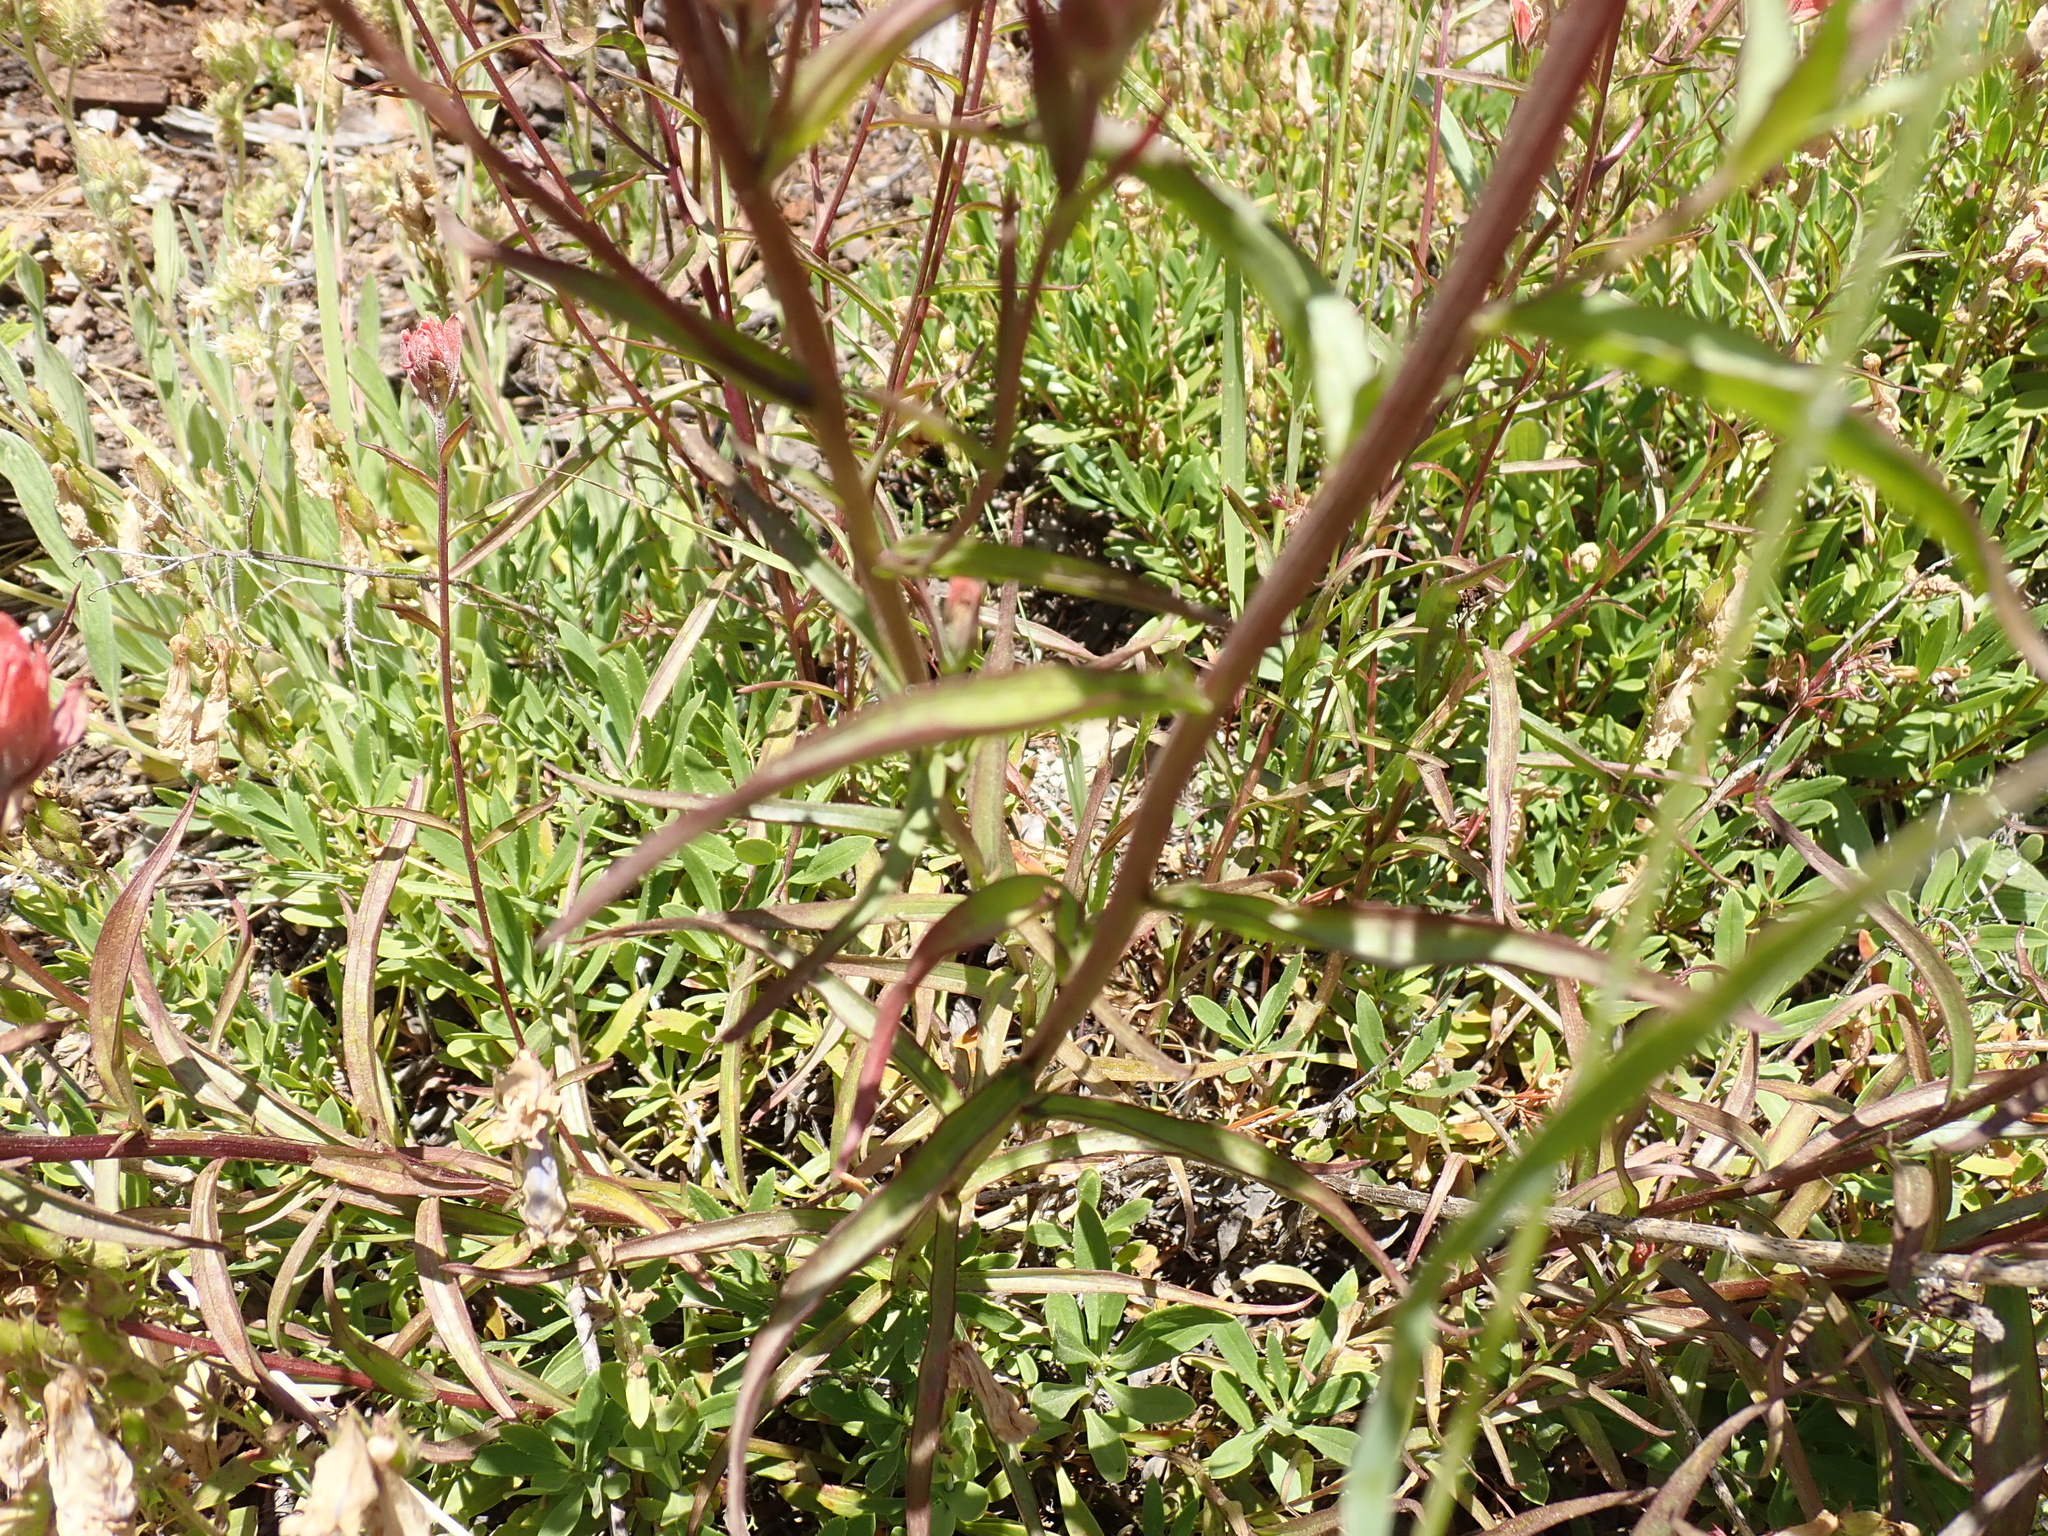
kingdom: Plantae
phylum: Tracheophyta
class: Magnoliopsida
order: Lamiales
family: Orobanchaceae
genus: Castilleja
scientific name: Castilleja miniata
